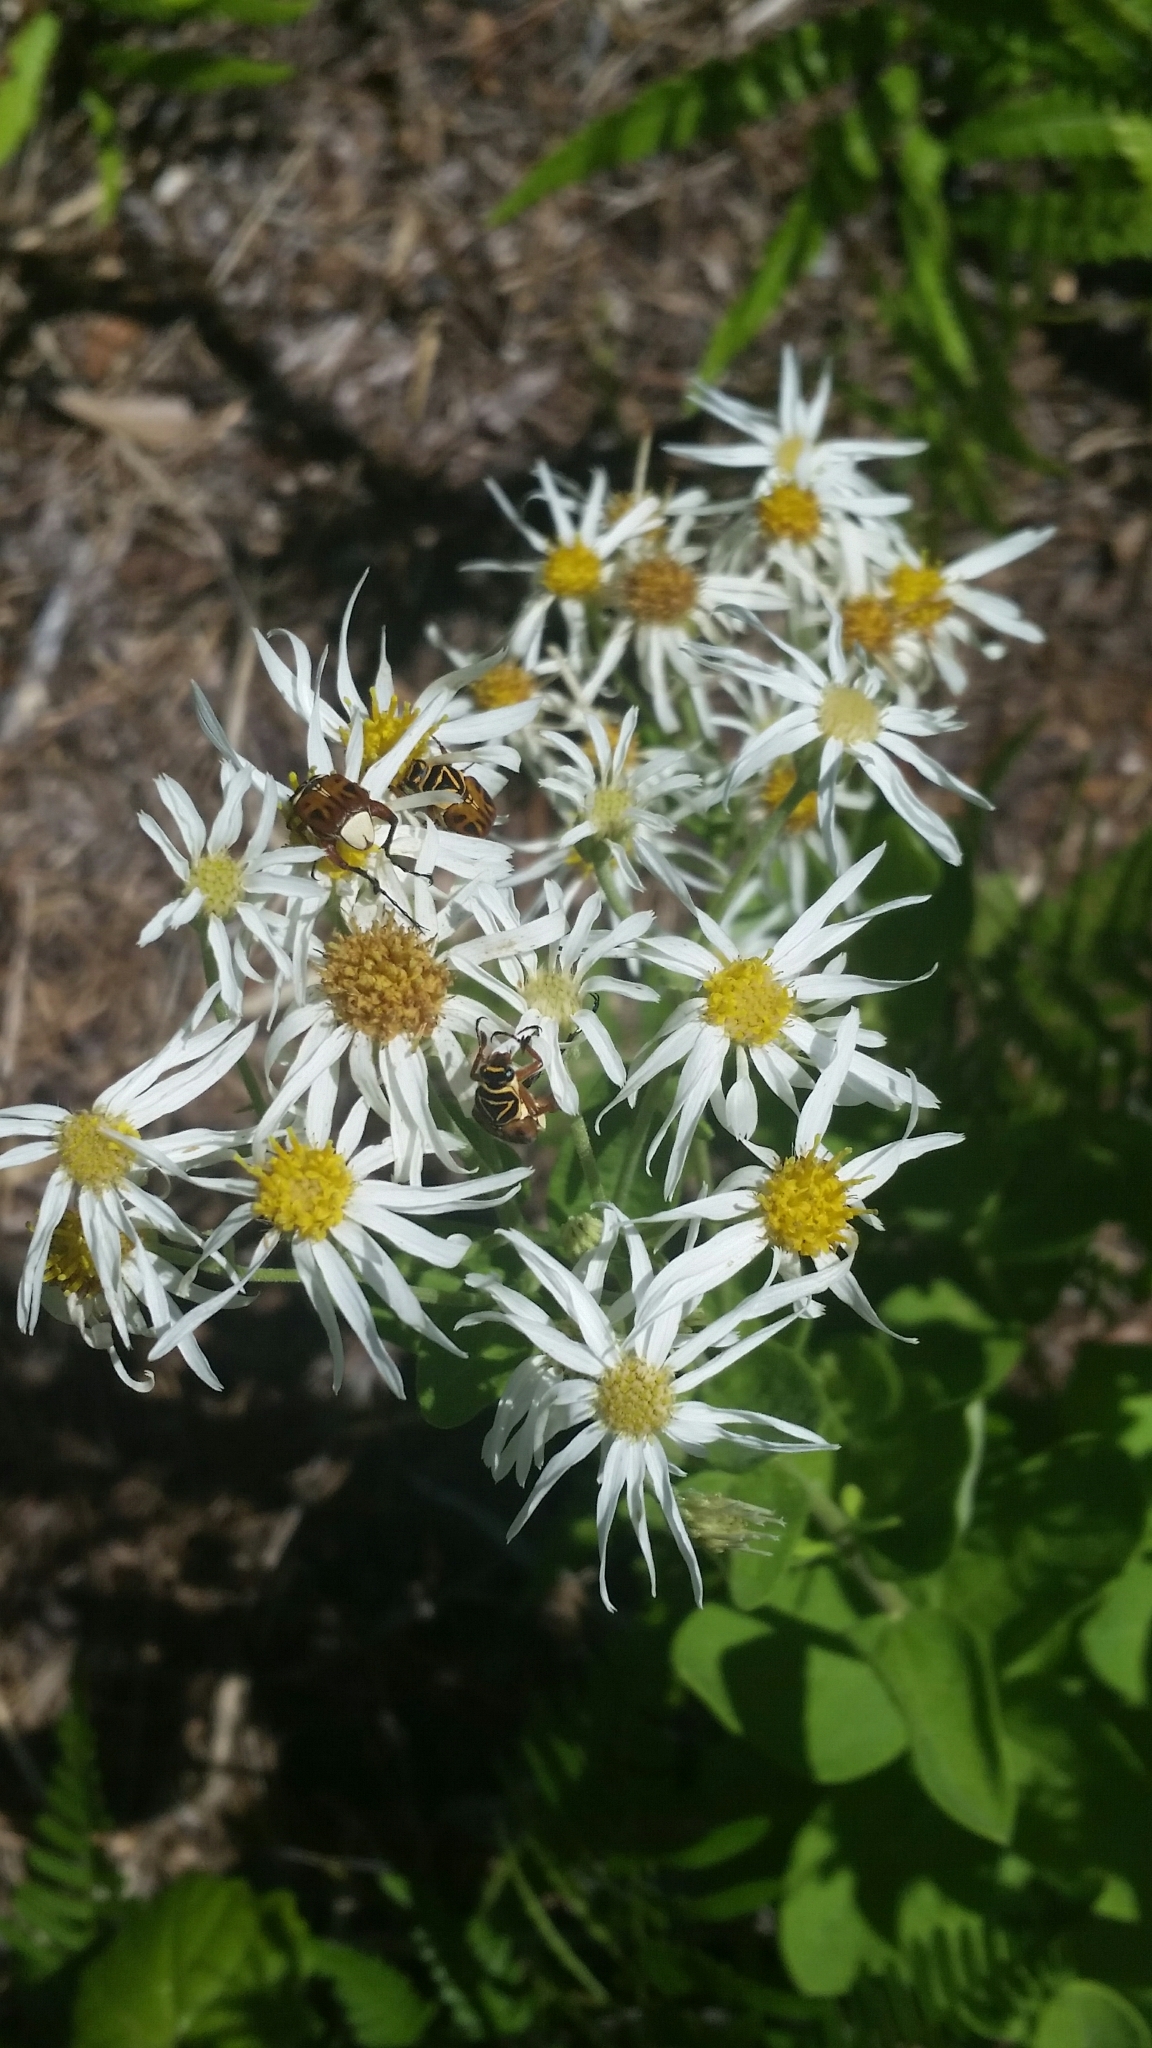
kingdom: Plantae
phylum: Tracheophyta
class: Magnoliopsida
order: Asterales
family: Asteraceae
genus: Oclemena
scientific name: Oclemena reticulata
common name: Pinebarren aster
